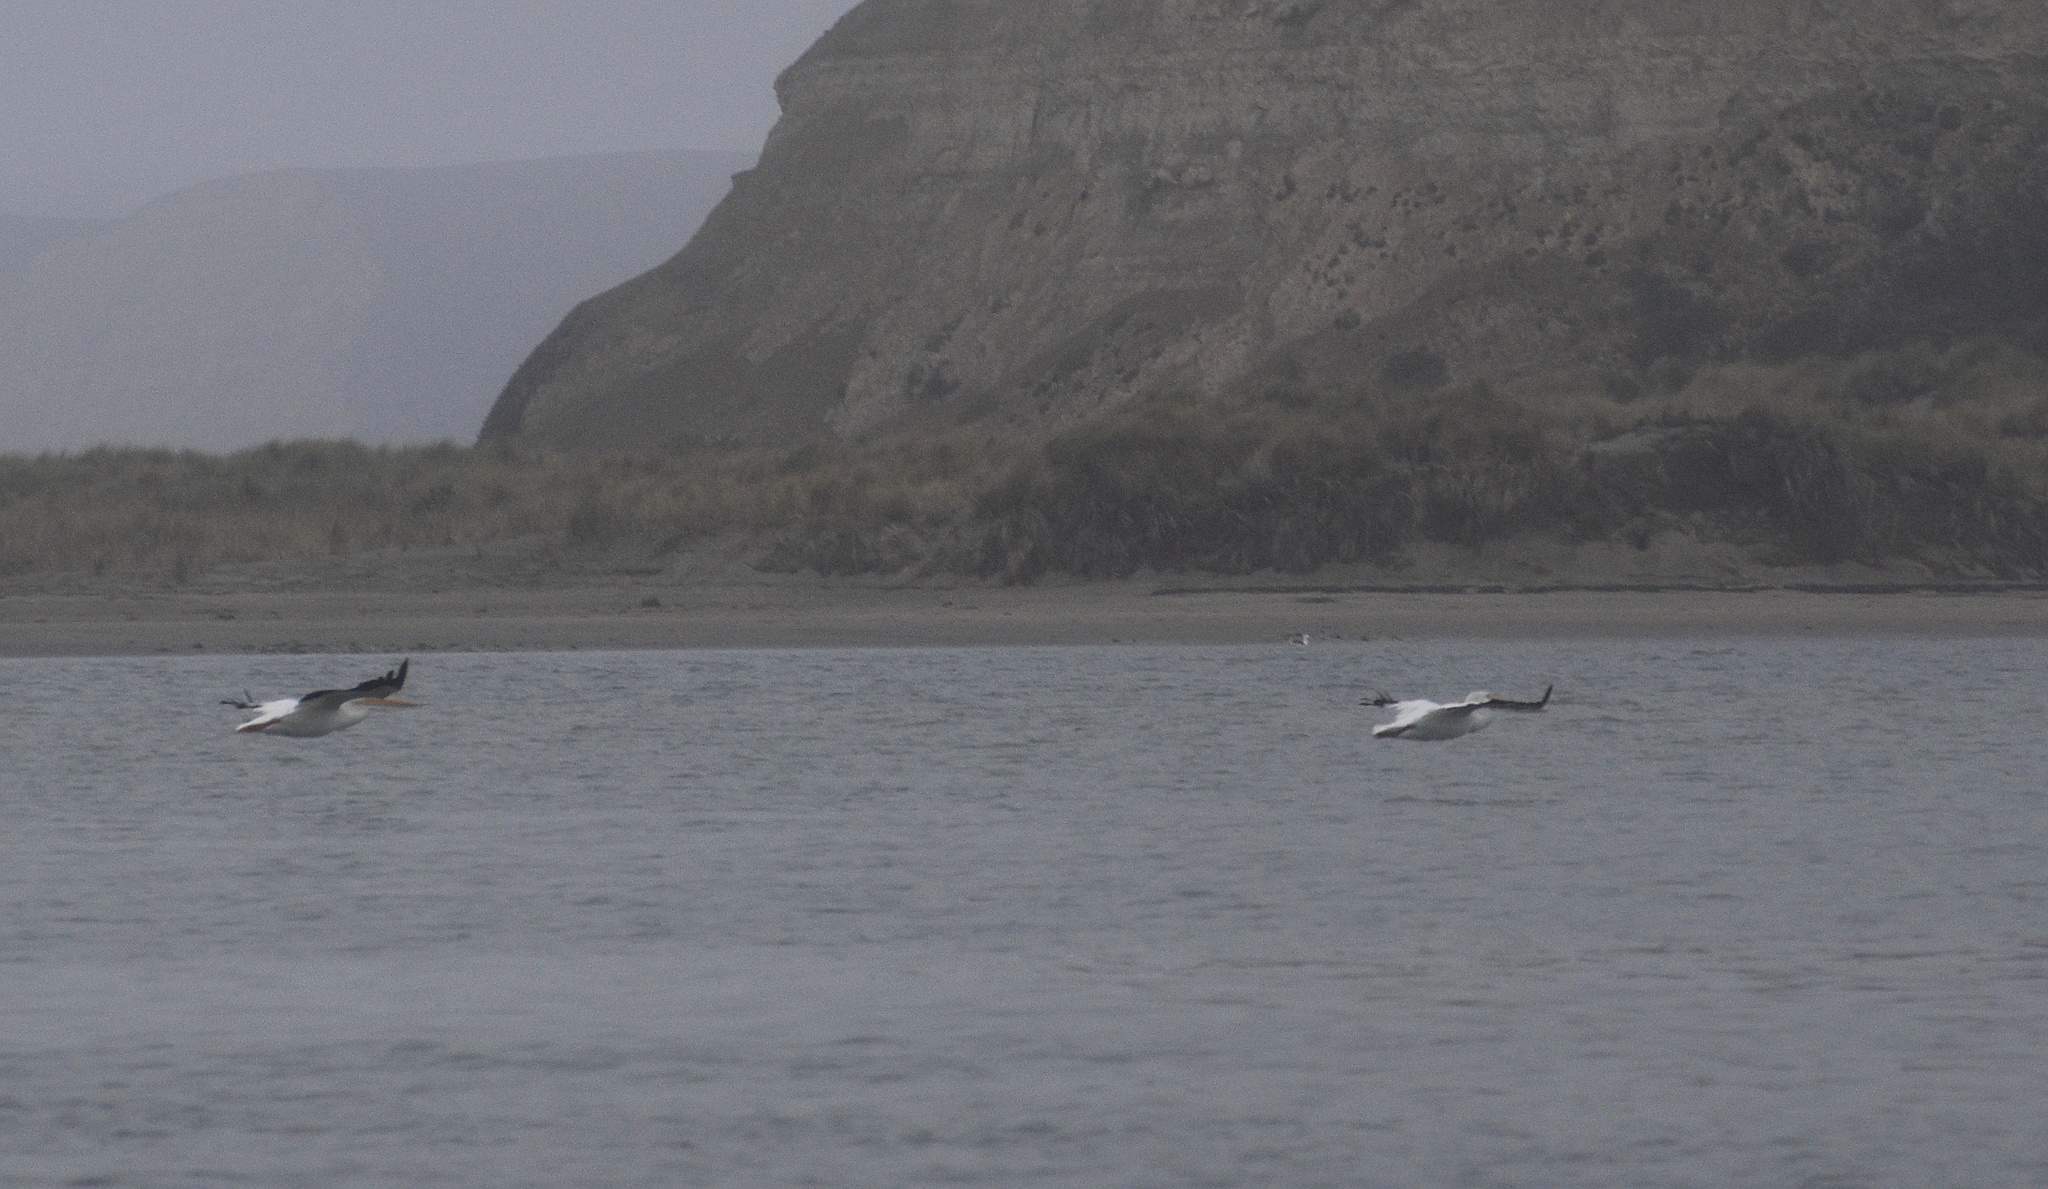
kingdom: Animalia
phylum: Chordata
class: Aves
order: Pelecaniformes
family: Pelecanidae
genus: Pelecanus
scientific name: Pelecanus erythrorhynchos
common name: American white pelican
